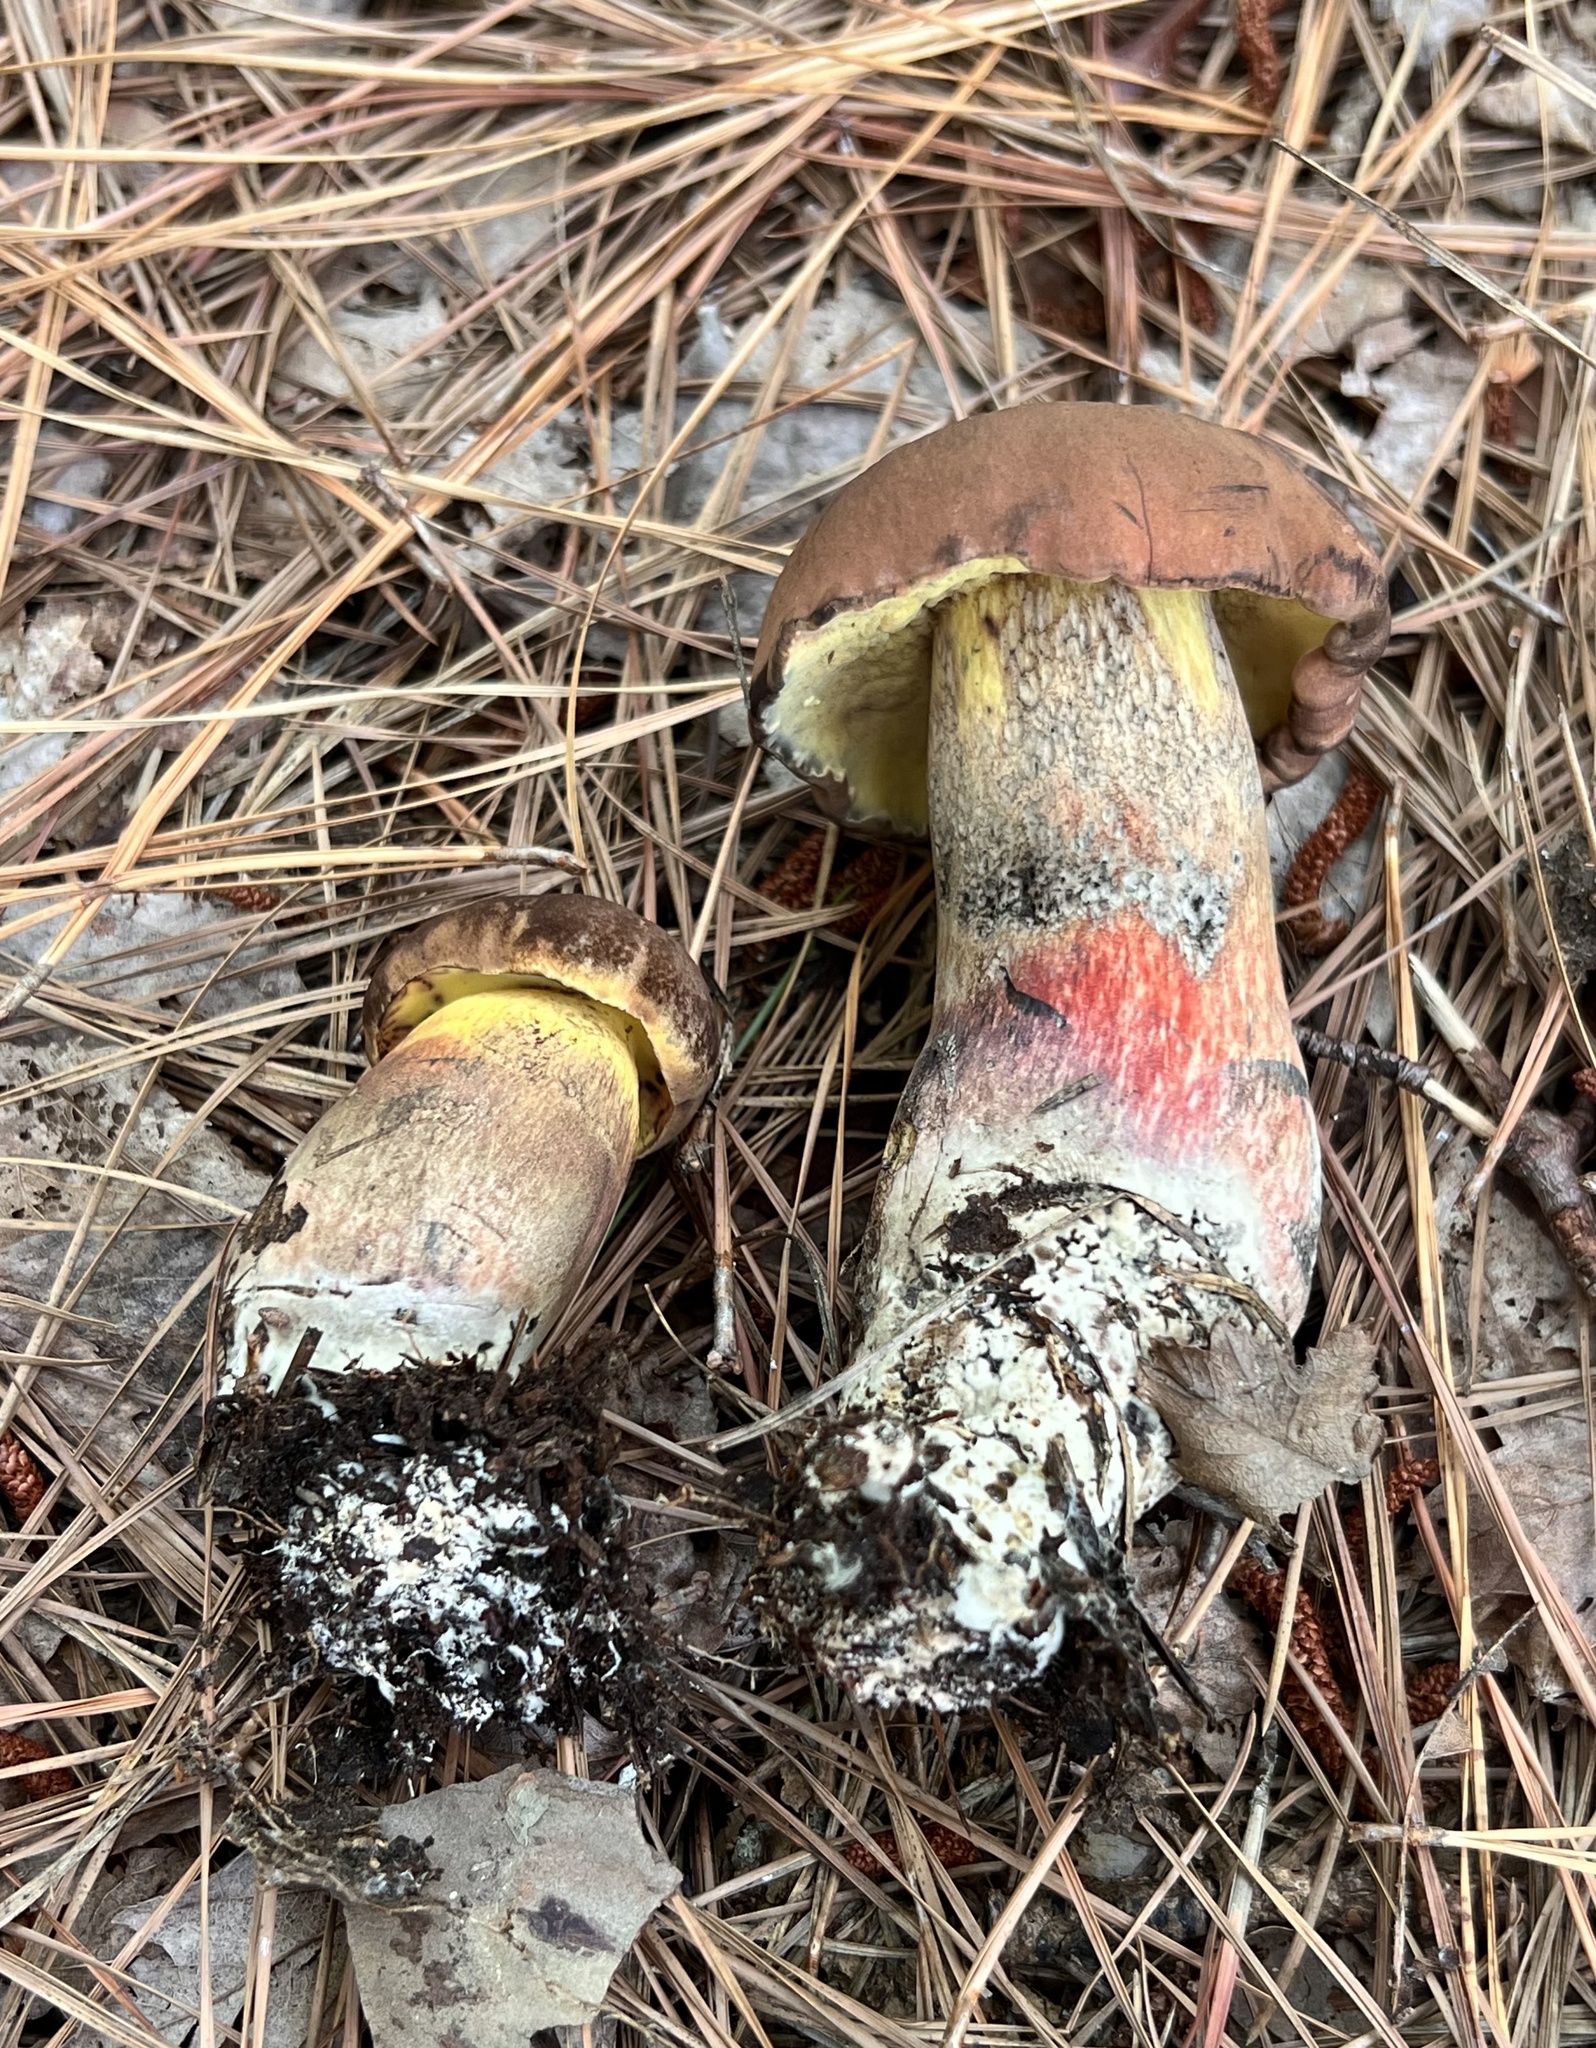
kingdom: Fungi
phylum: Basidiomycota
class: Agaricomycetes
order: Boletales
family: Boletaceae
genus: Boletus
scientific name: Boletus
